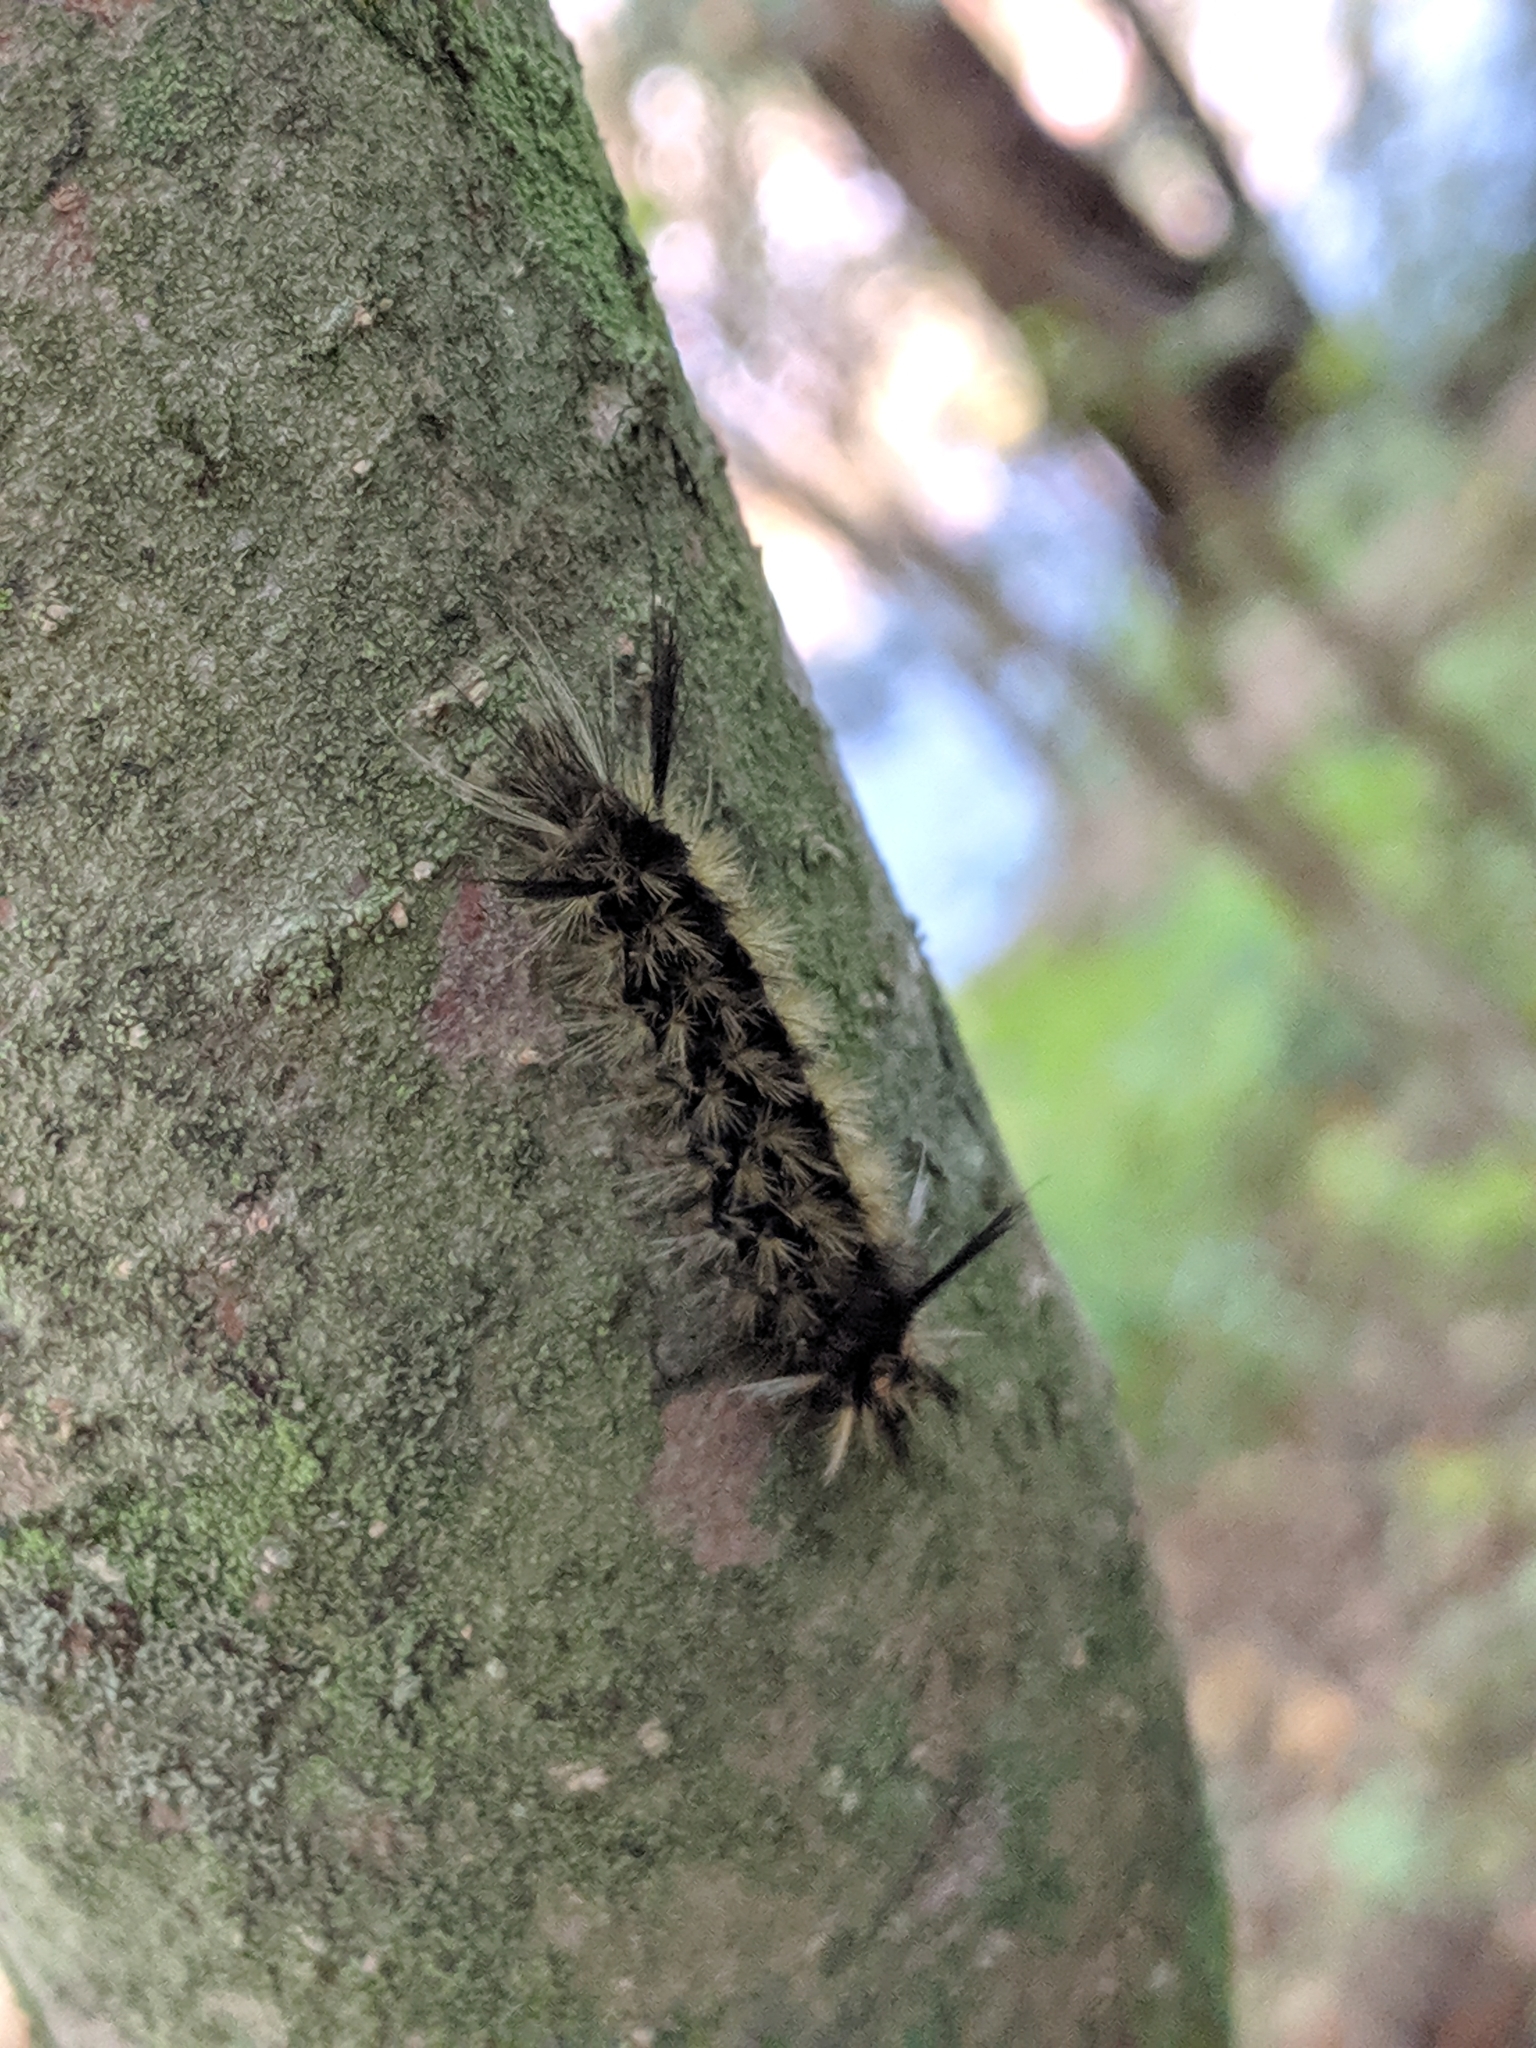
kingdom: Animalia
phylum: Arthropoda
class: Insecta
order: Lepidoptera
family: Erebidae
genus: Halysidota
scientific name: Halysidota tessellaris
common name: Banded tussock moth
